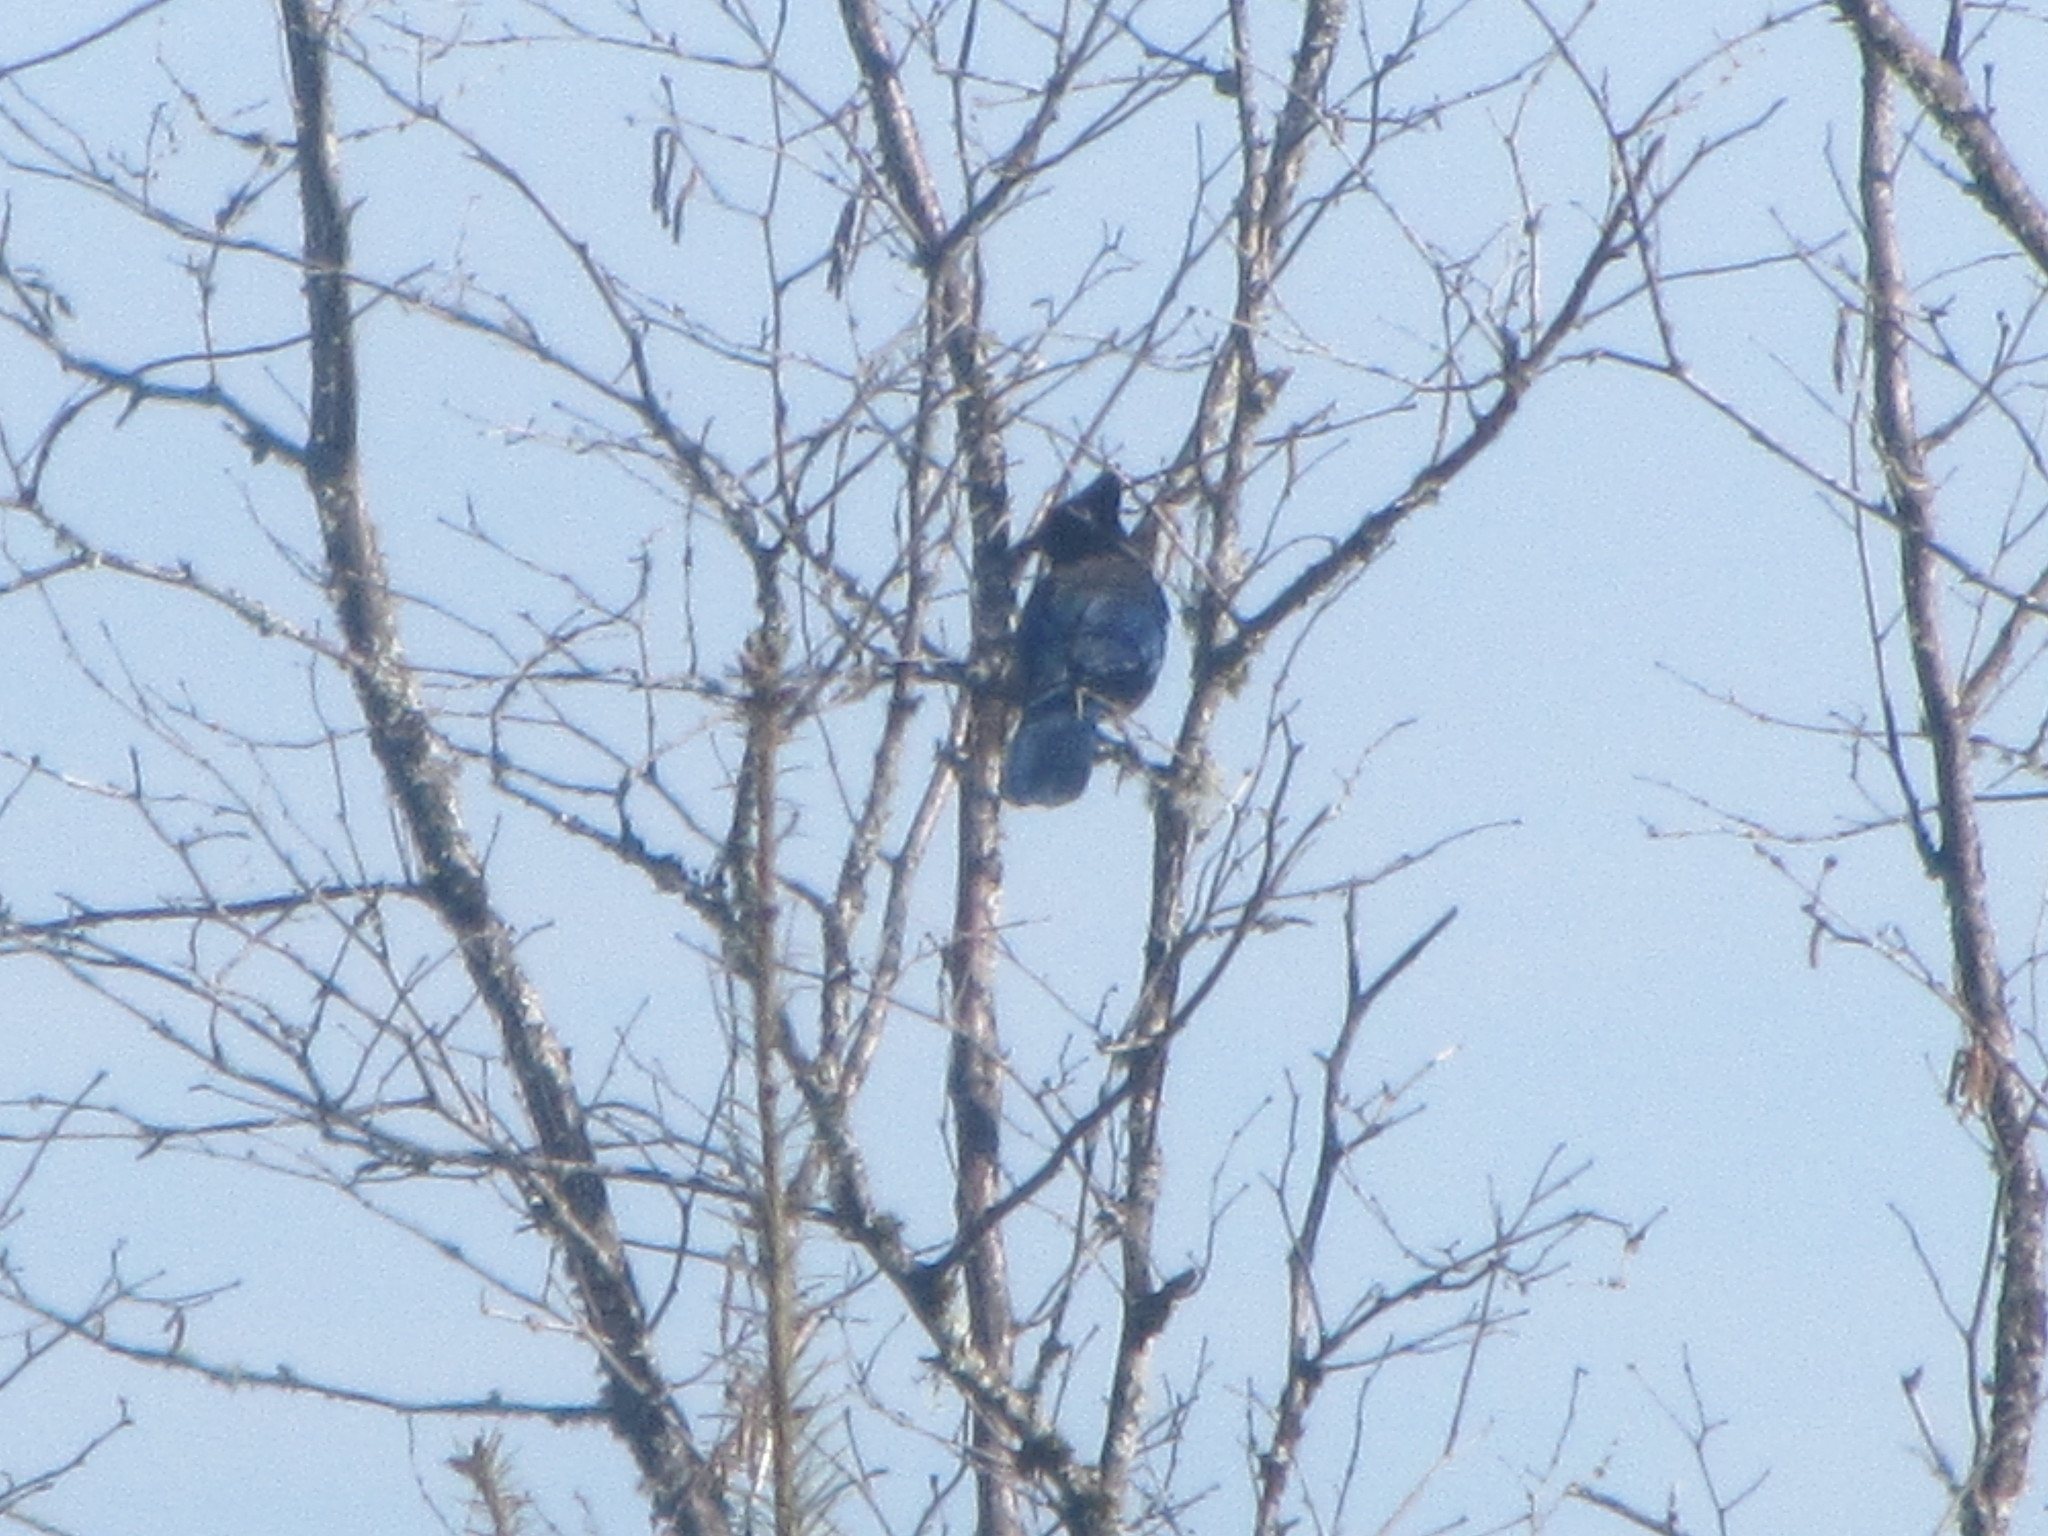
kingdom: Animalia
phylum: Chordata
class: Aves
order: Passeriformes
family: Corvidae
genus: Cyanocitta
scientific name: Cyanocitta stelleri
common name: Steller's jay
